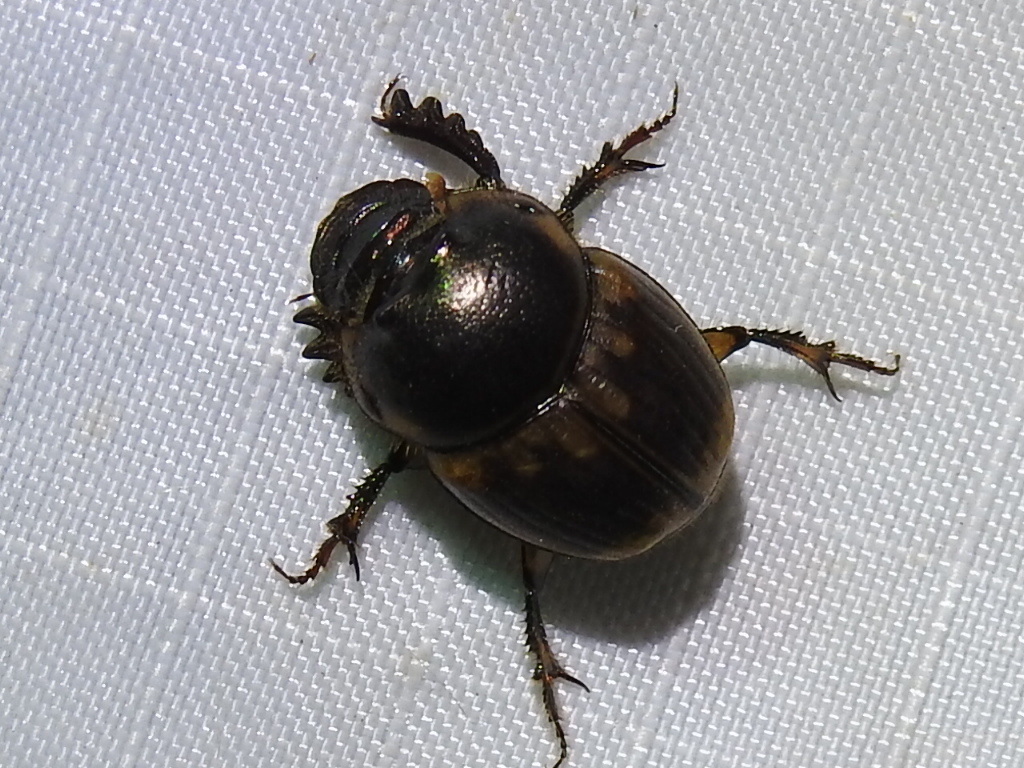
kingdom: Animalia
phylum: Arthropoda
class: Insecta
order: Coleoptera
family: Scarabaeidae
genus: Digitonthophagus
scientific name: Digitonthophagus gazella
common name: Brown dung beetle
